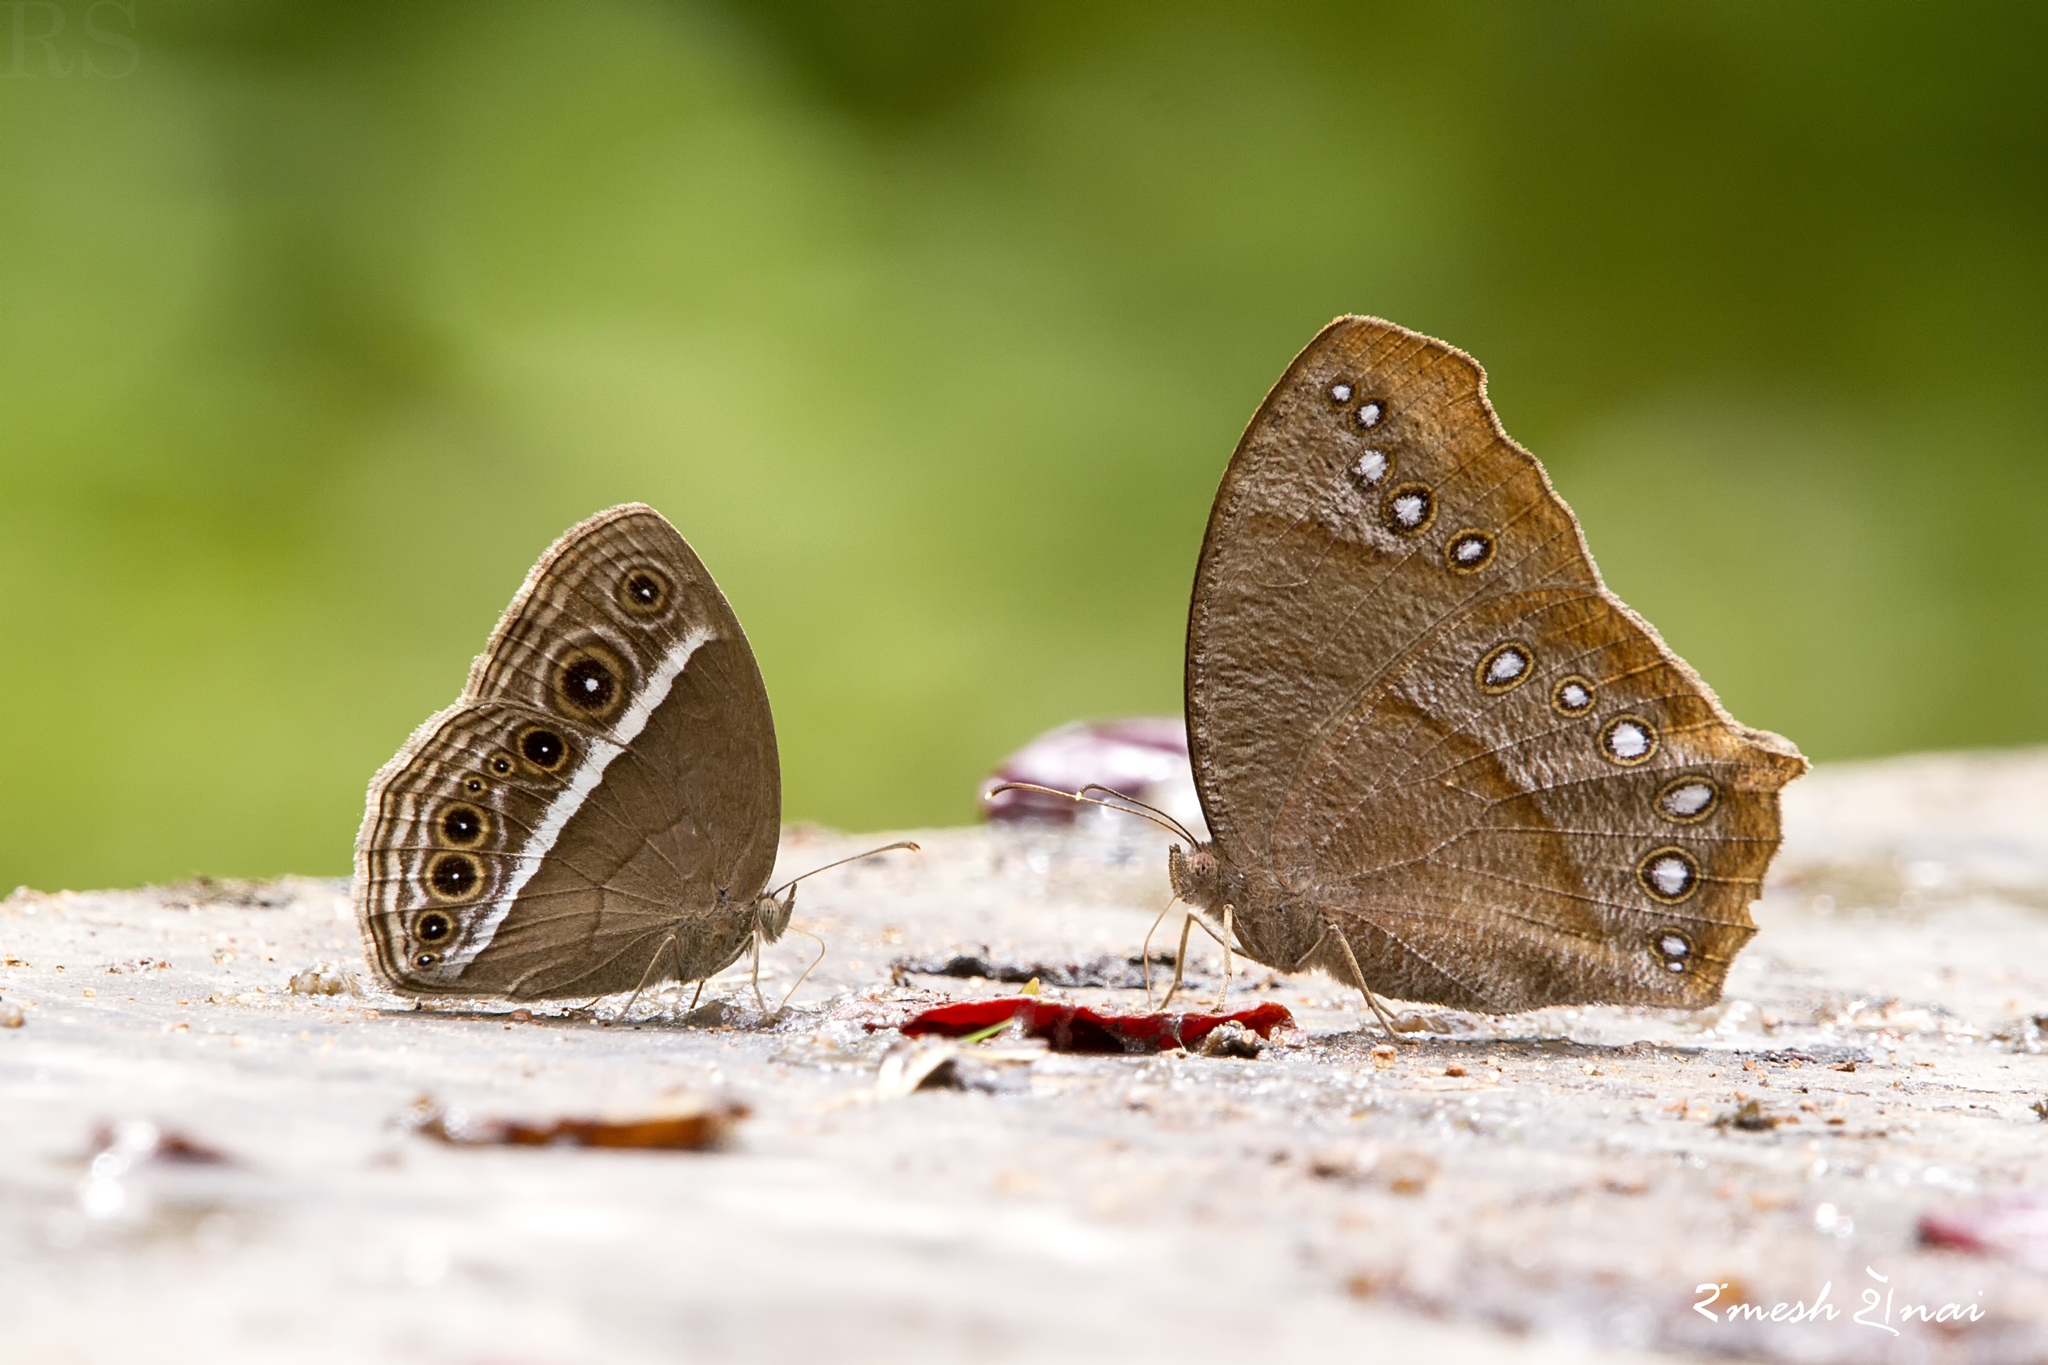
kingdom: Animalia
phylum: Arthropoda
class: Insecta
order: Lepidoptera
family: Nymphalidae
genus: Mycalesis
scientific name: Mycalesis perseus
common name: Dingy bushbrown
